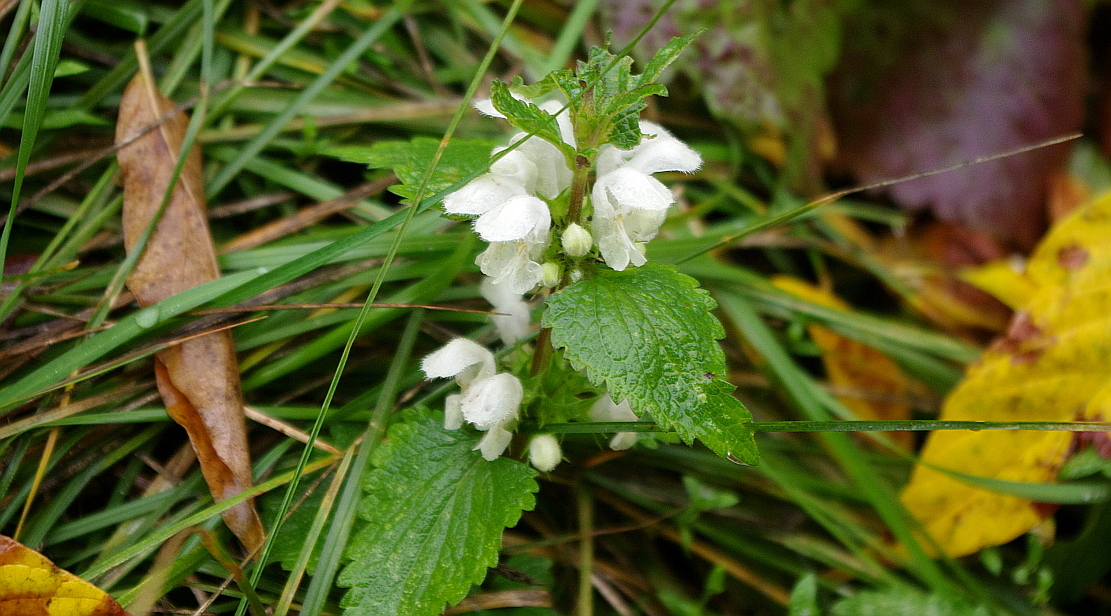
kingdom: Plantae
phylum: Tracheophyta
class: Magnoliopsida
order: Lamiales
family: Lamiaceae
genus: Lamium
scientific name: Lamium album
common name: White dead-nettle
